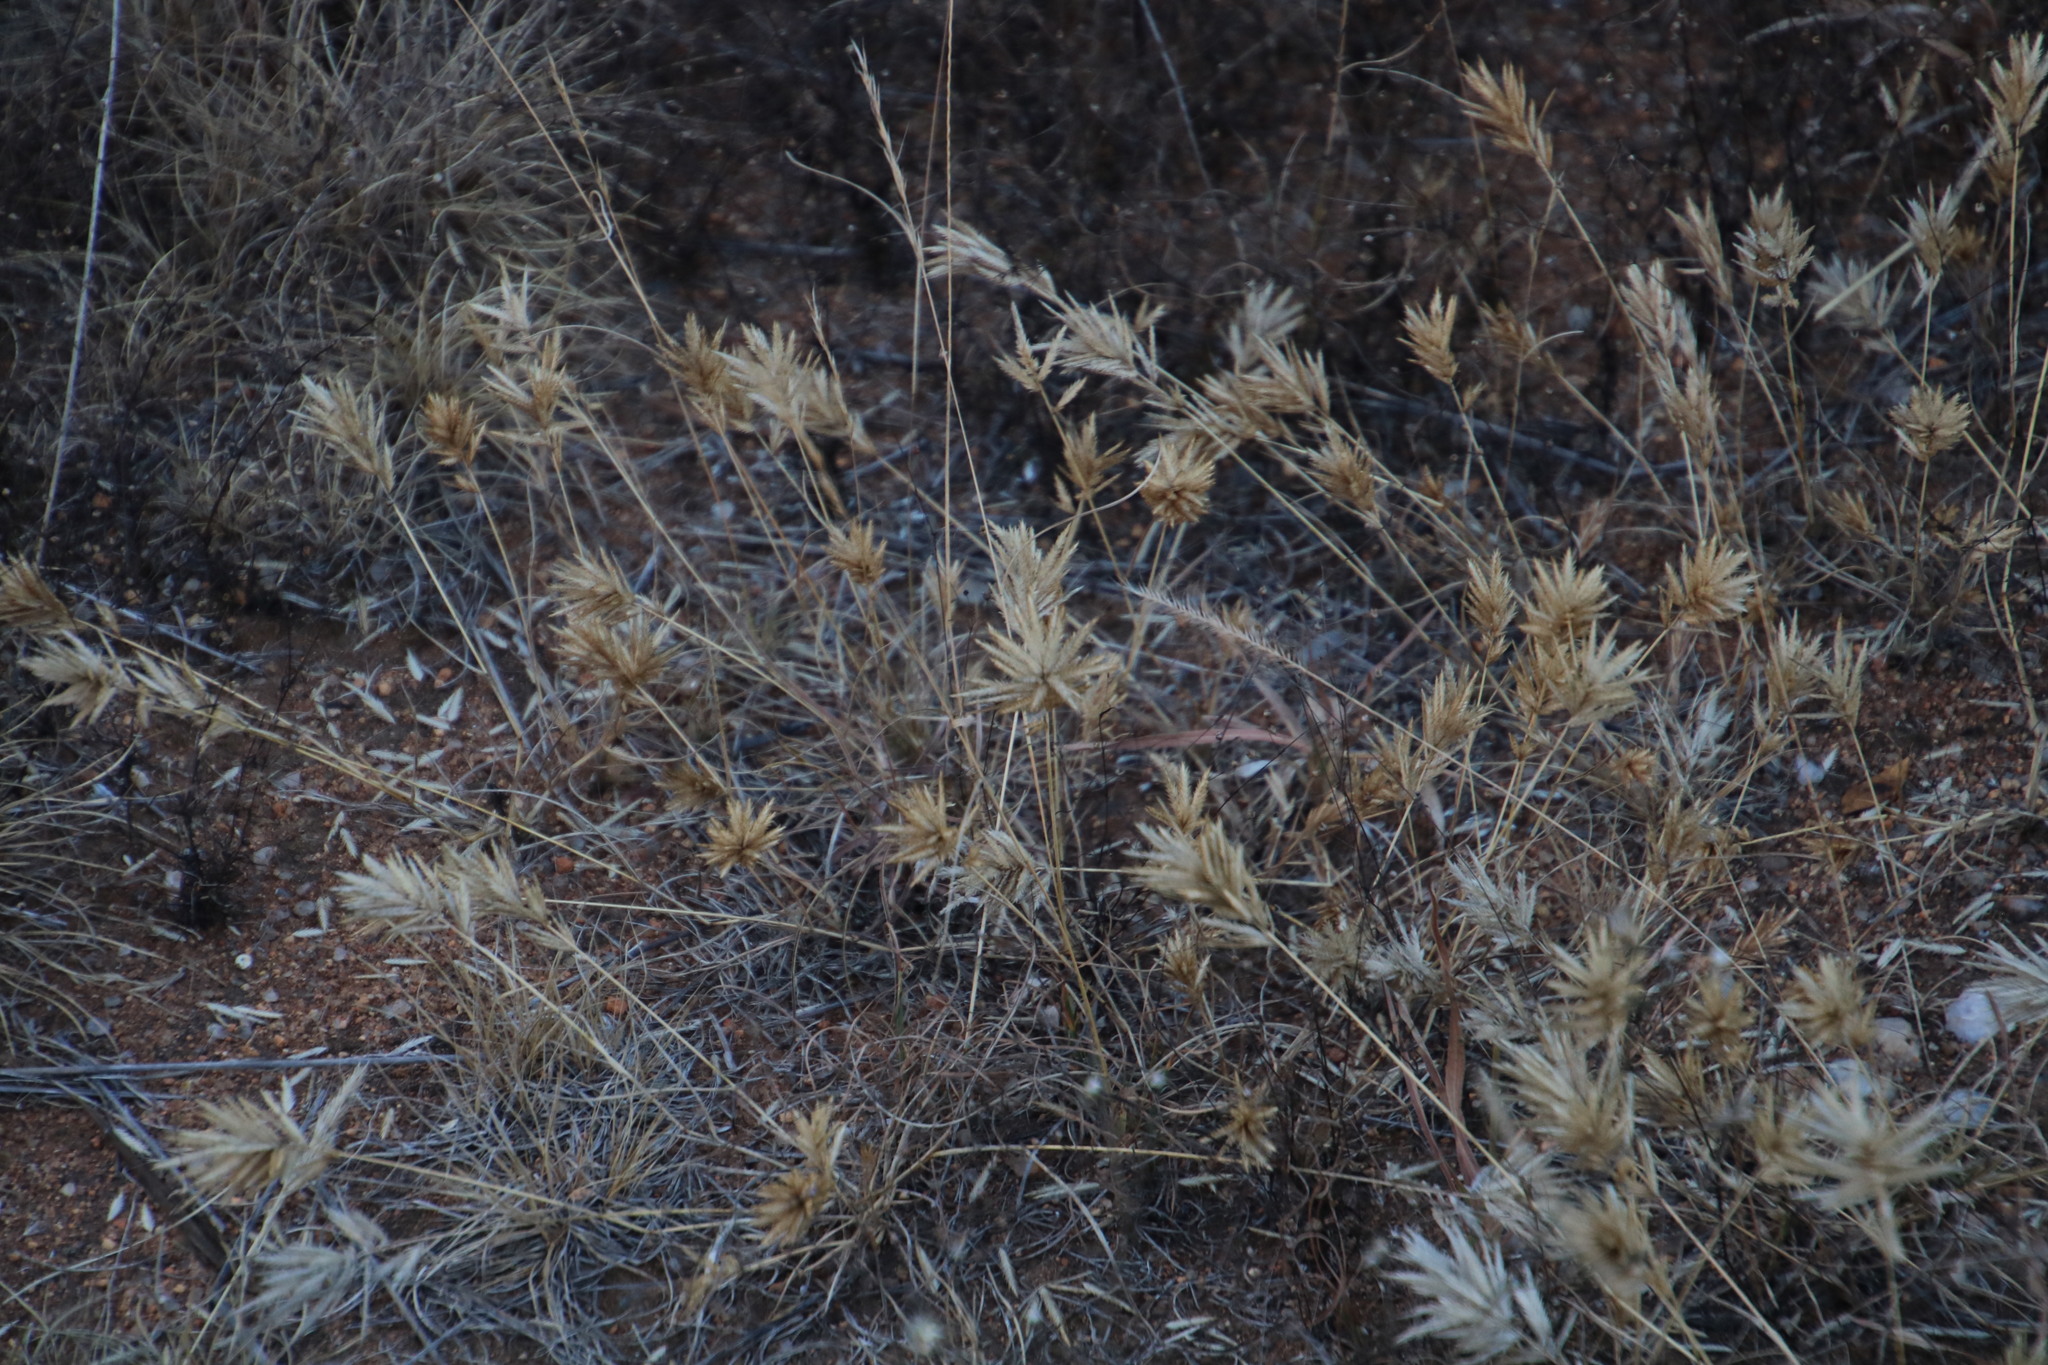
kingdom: Plantae
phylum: Tracheophyta
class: Liliopsida
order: Poales
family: Poaceae
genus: Eragrostis
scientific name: Eragrostis patens
